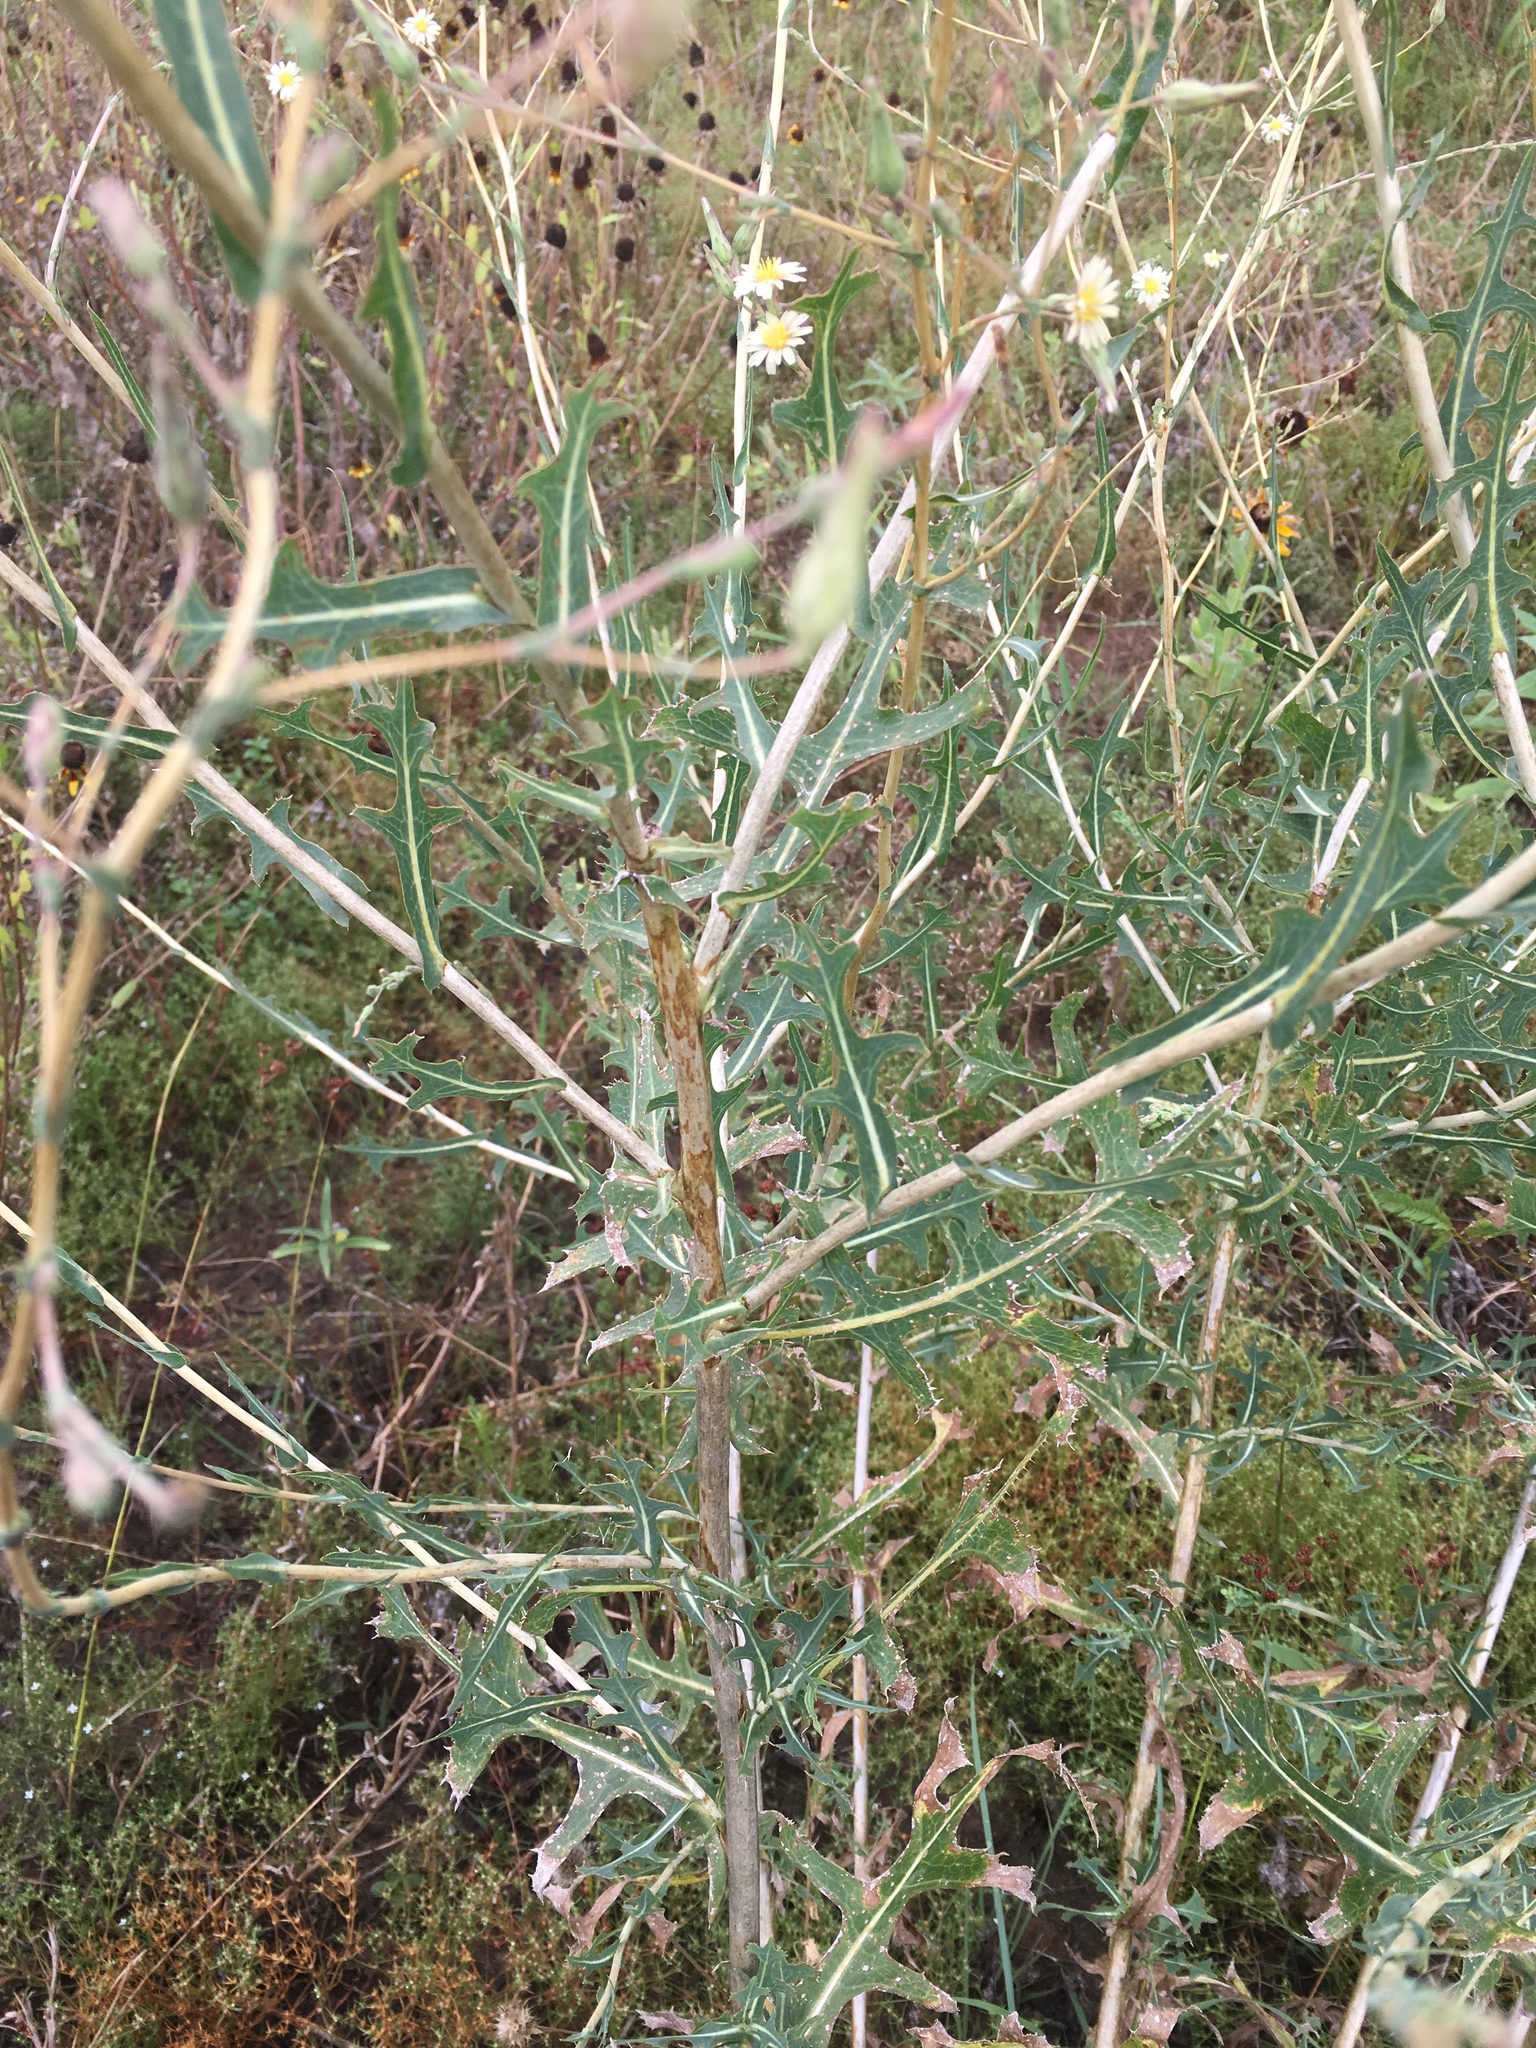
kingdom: Plantae
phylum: Tracheophyta
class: Magnoliopsida
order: Asterales
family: Asteraceae
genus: Lactuca
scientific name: Lactuca serriola
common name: Prickly lettuce
